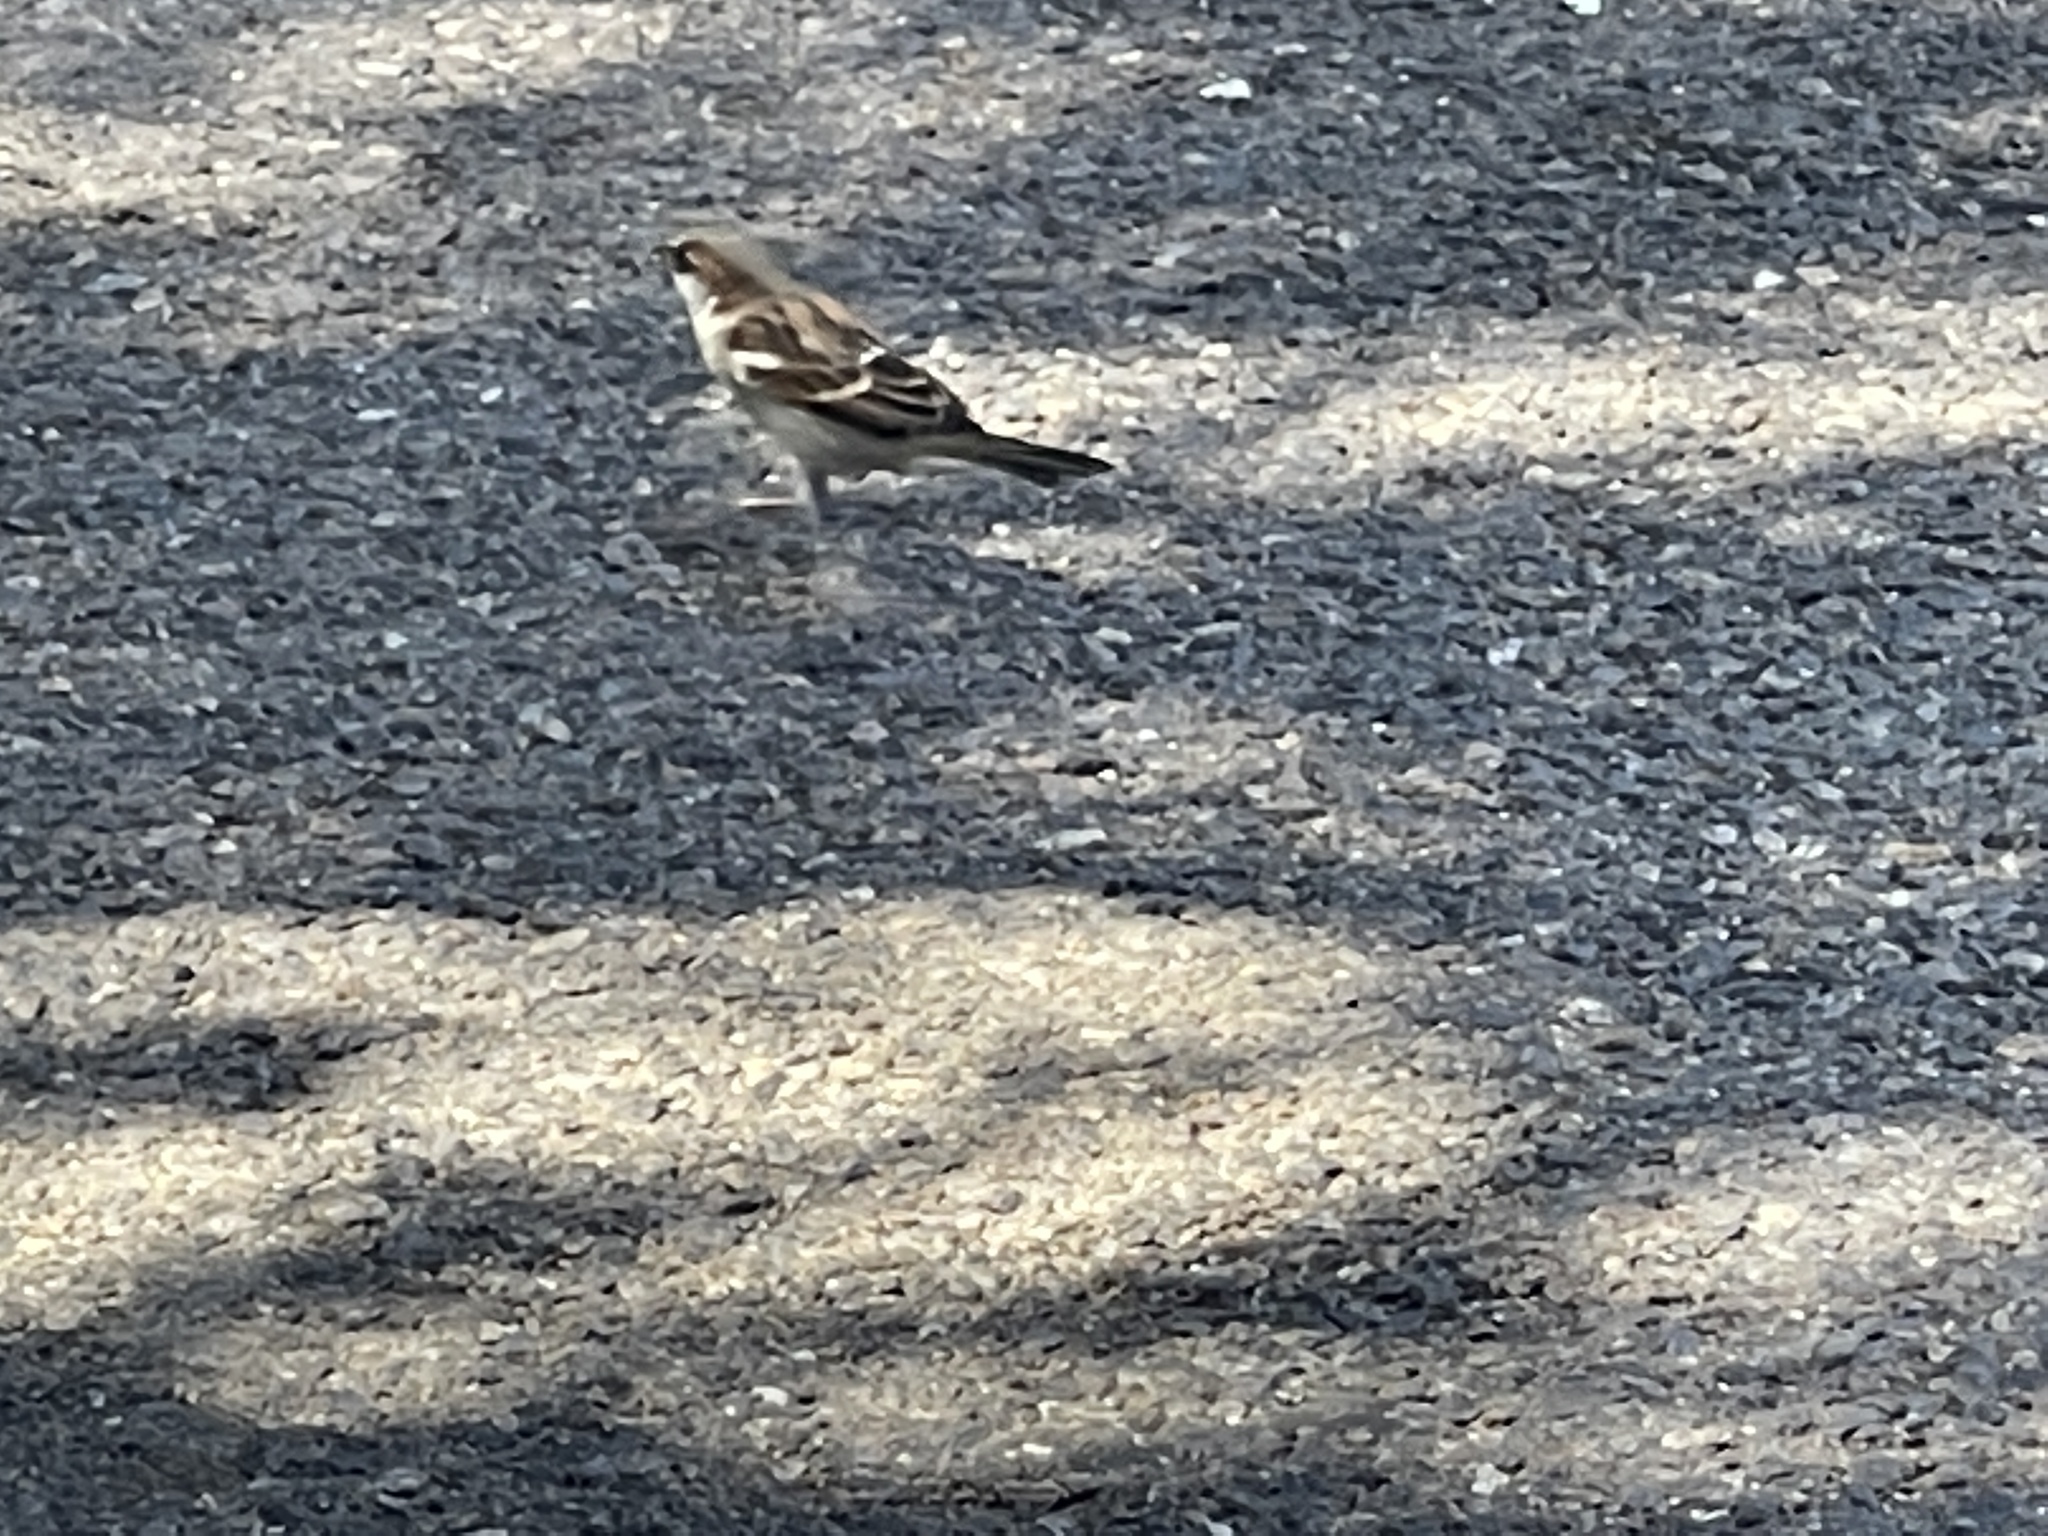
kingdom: Animalia
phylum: Chordata
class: Aves
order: Passeriformes
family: Passeridae
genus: Passer
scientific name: Passer domesticus
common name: House sparrow
